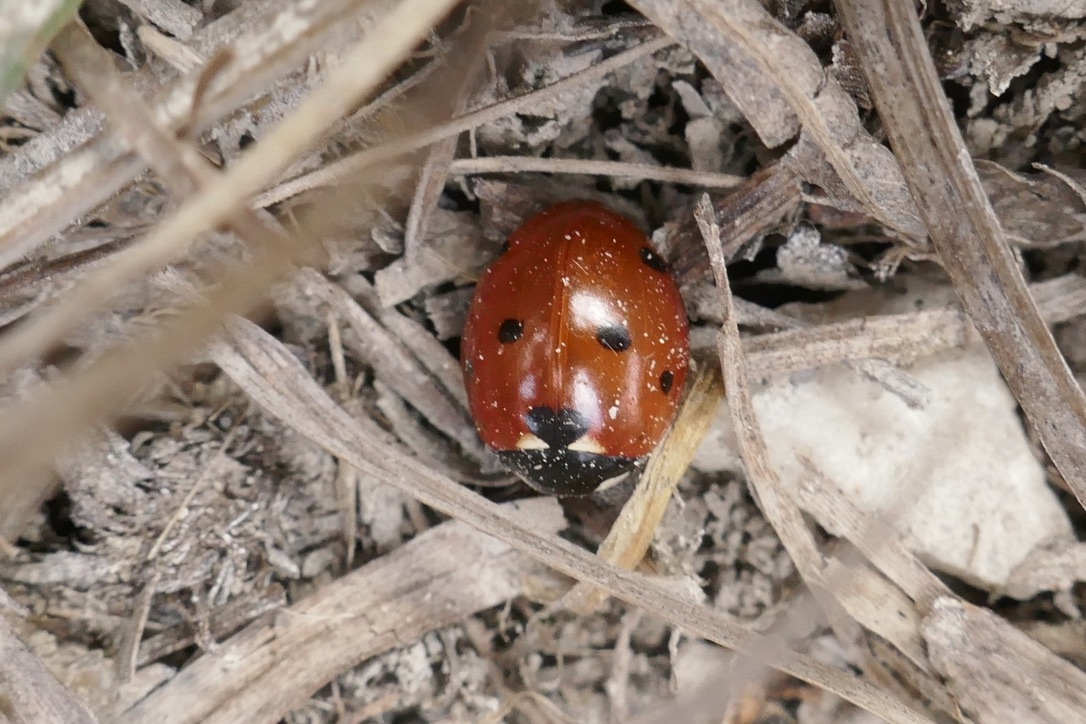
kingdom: Animalia
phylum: Arthropoda
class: Insecta
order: Coleoptera
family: Coccinellidae
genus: Coccinella
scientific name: Coccinella septempunctata
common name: Sevenspotted lady beetle
